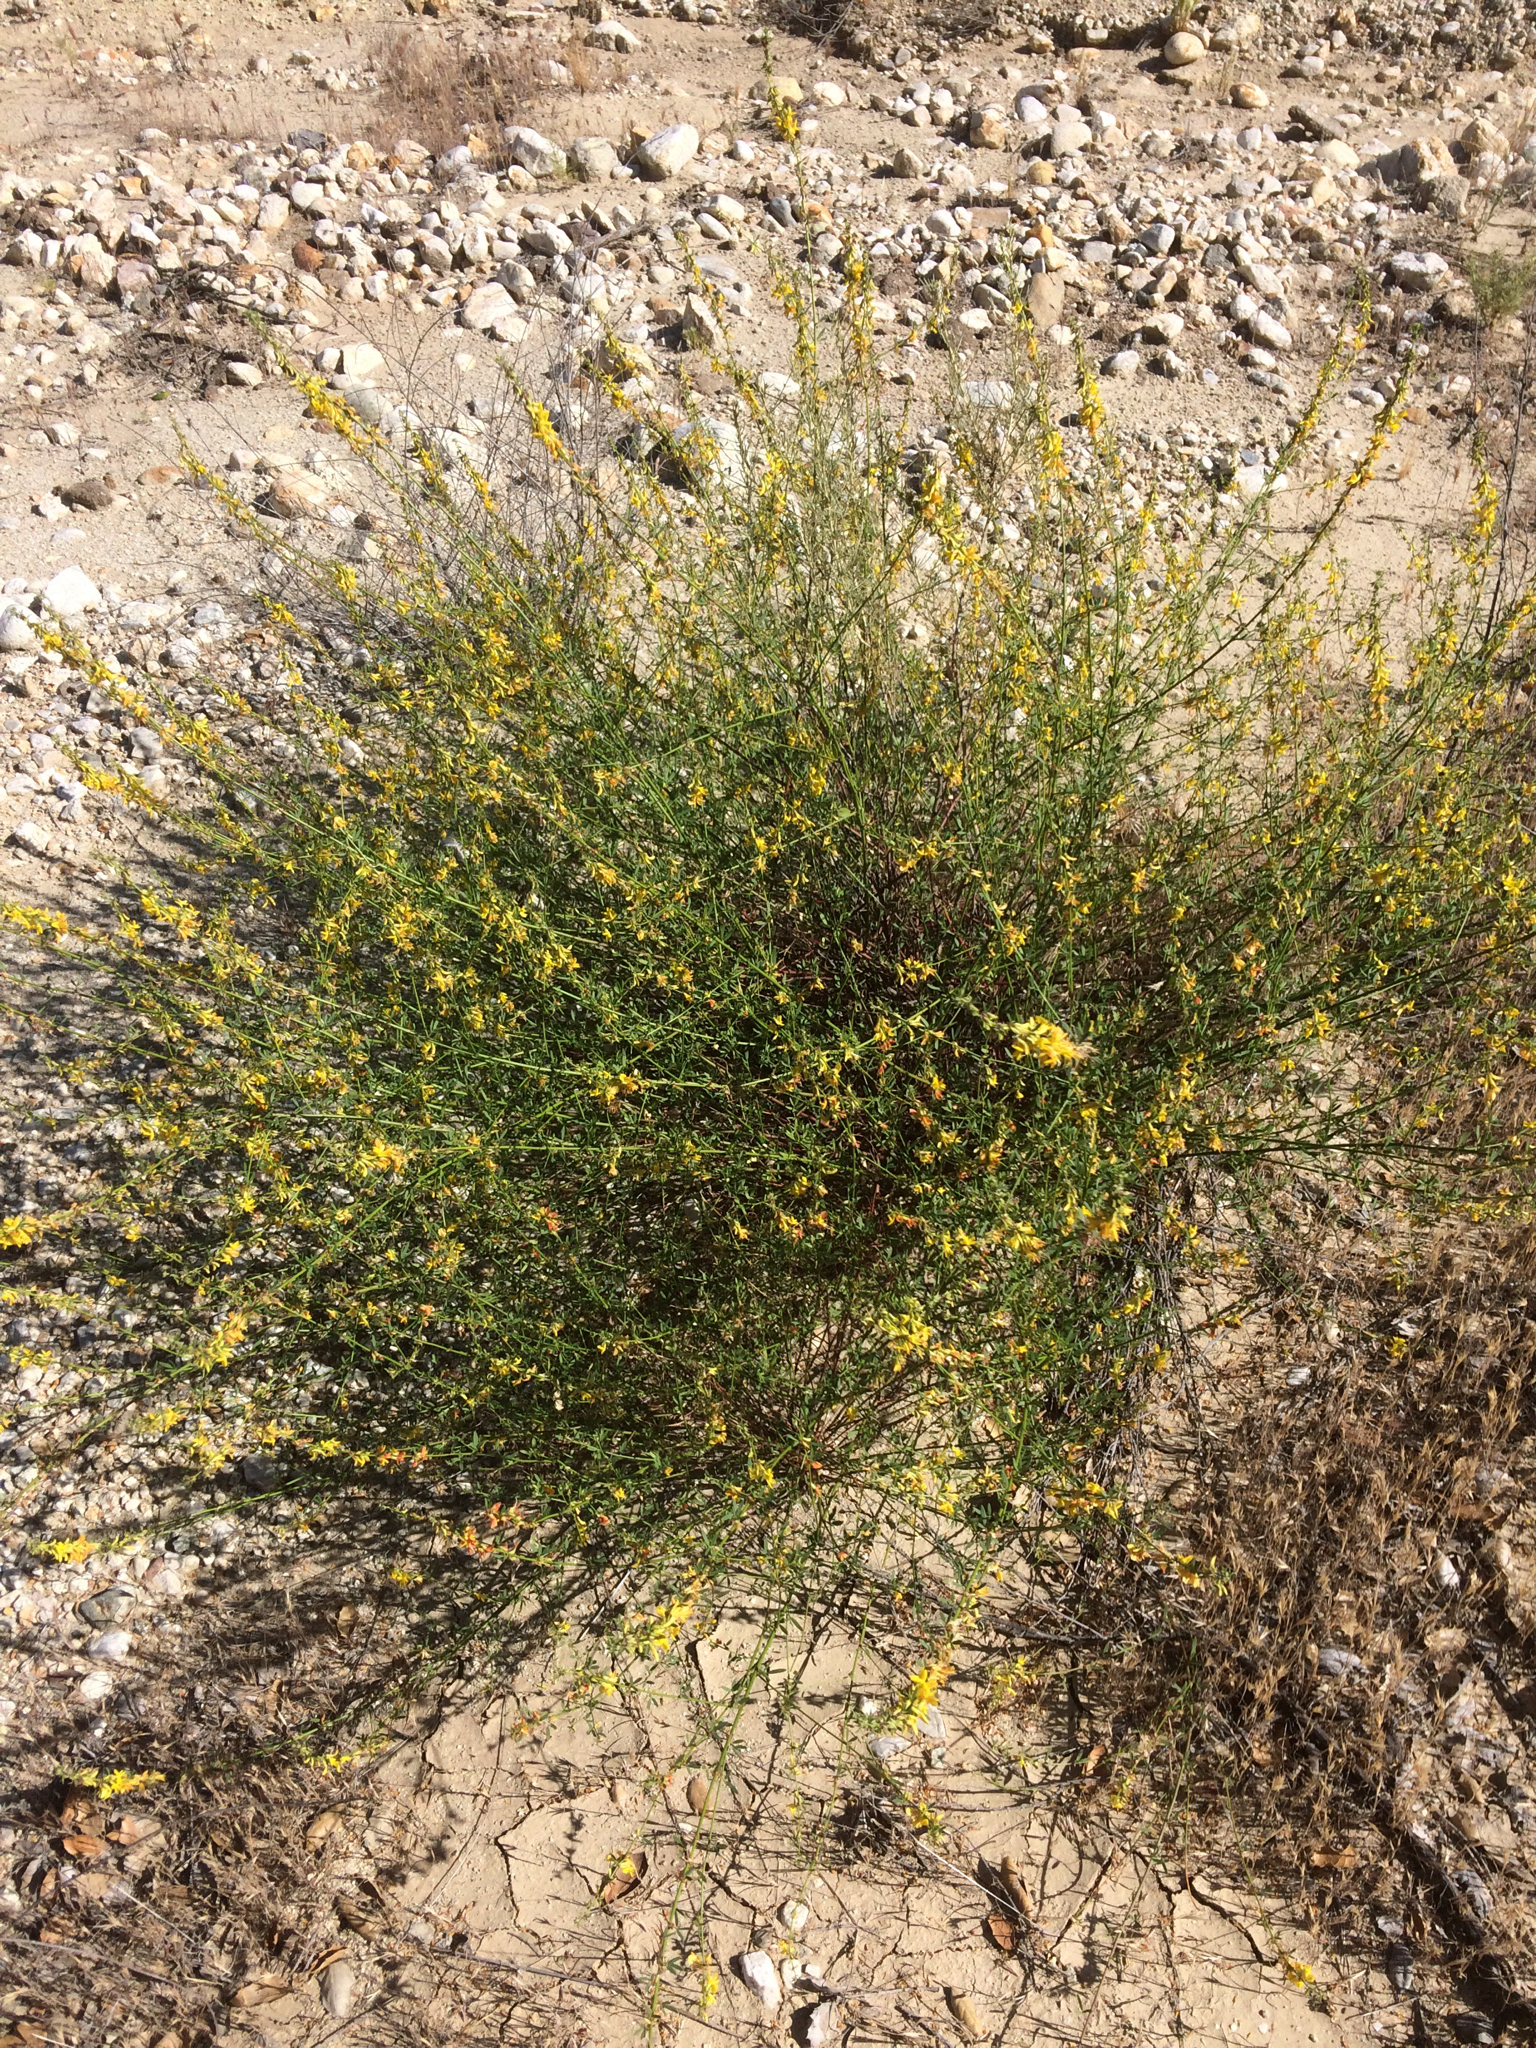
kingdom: Plantae
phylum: Tracheophyta
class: Magnoliopsida
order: Fabales
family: Fabaceae
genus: Acmispon
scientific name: Acmispon glaber
